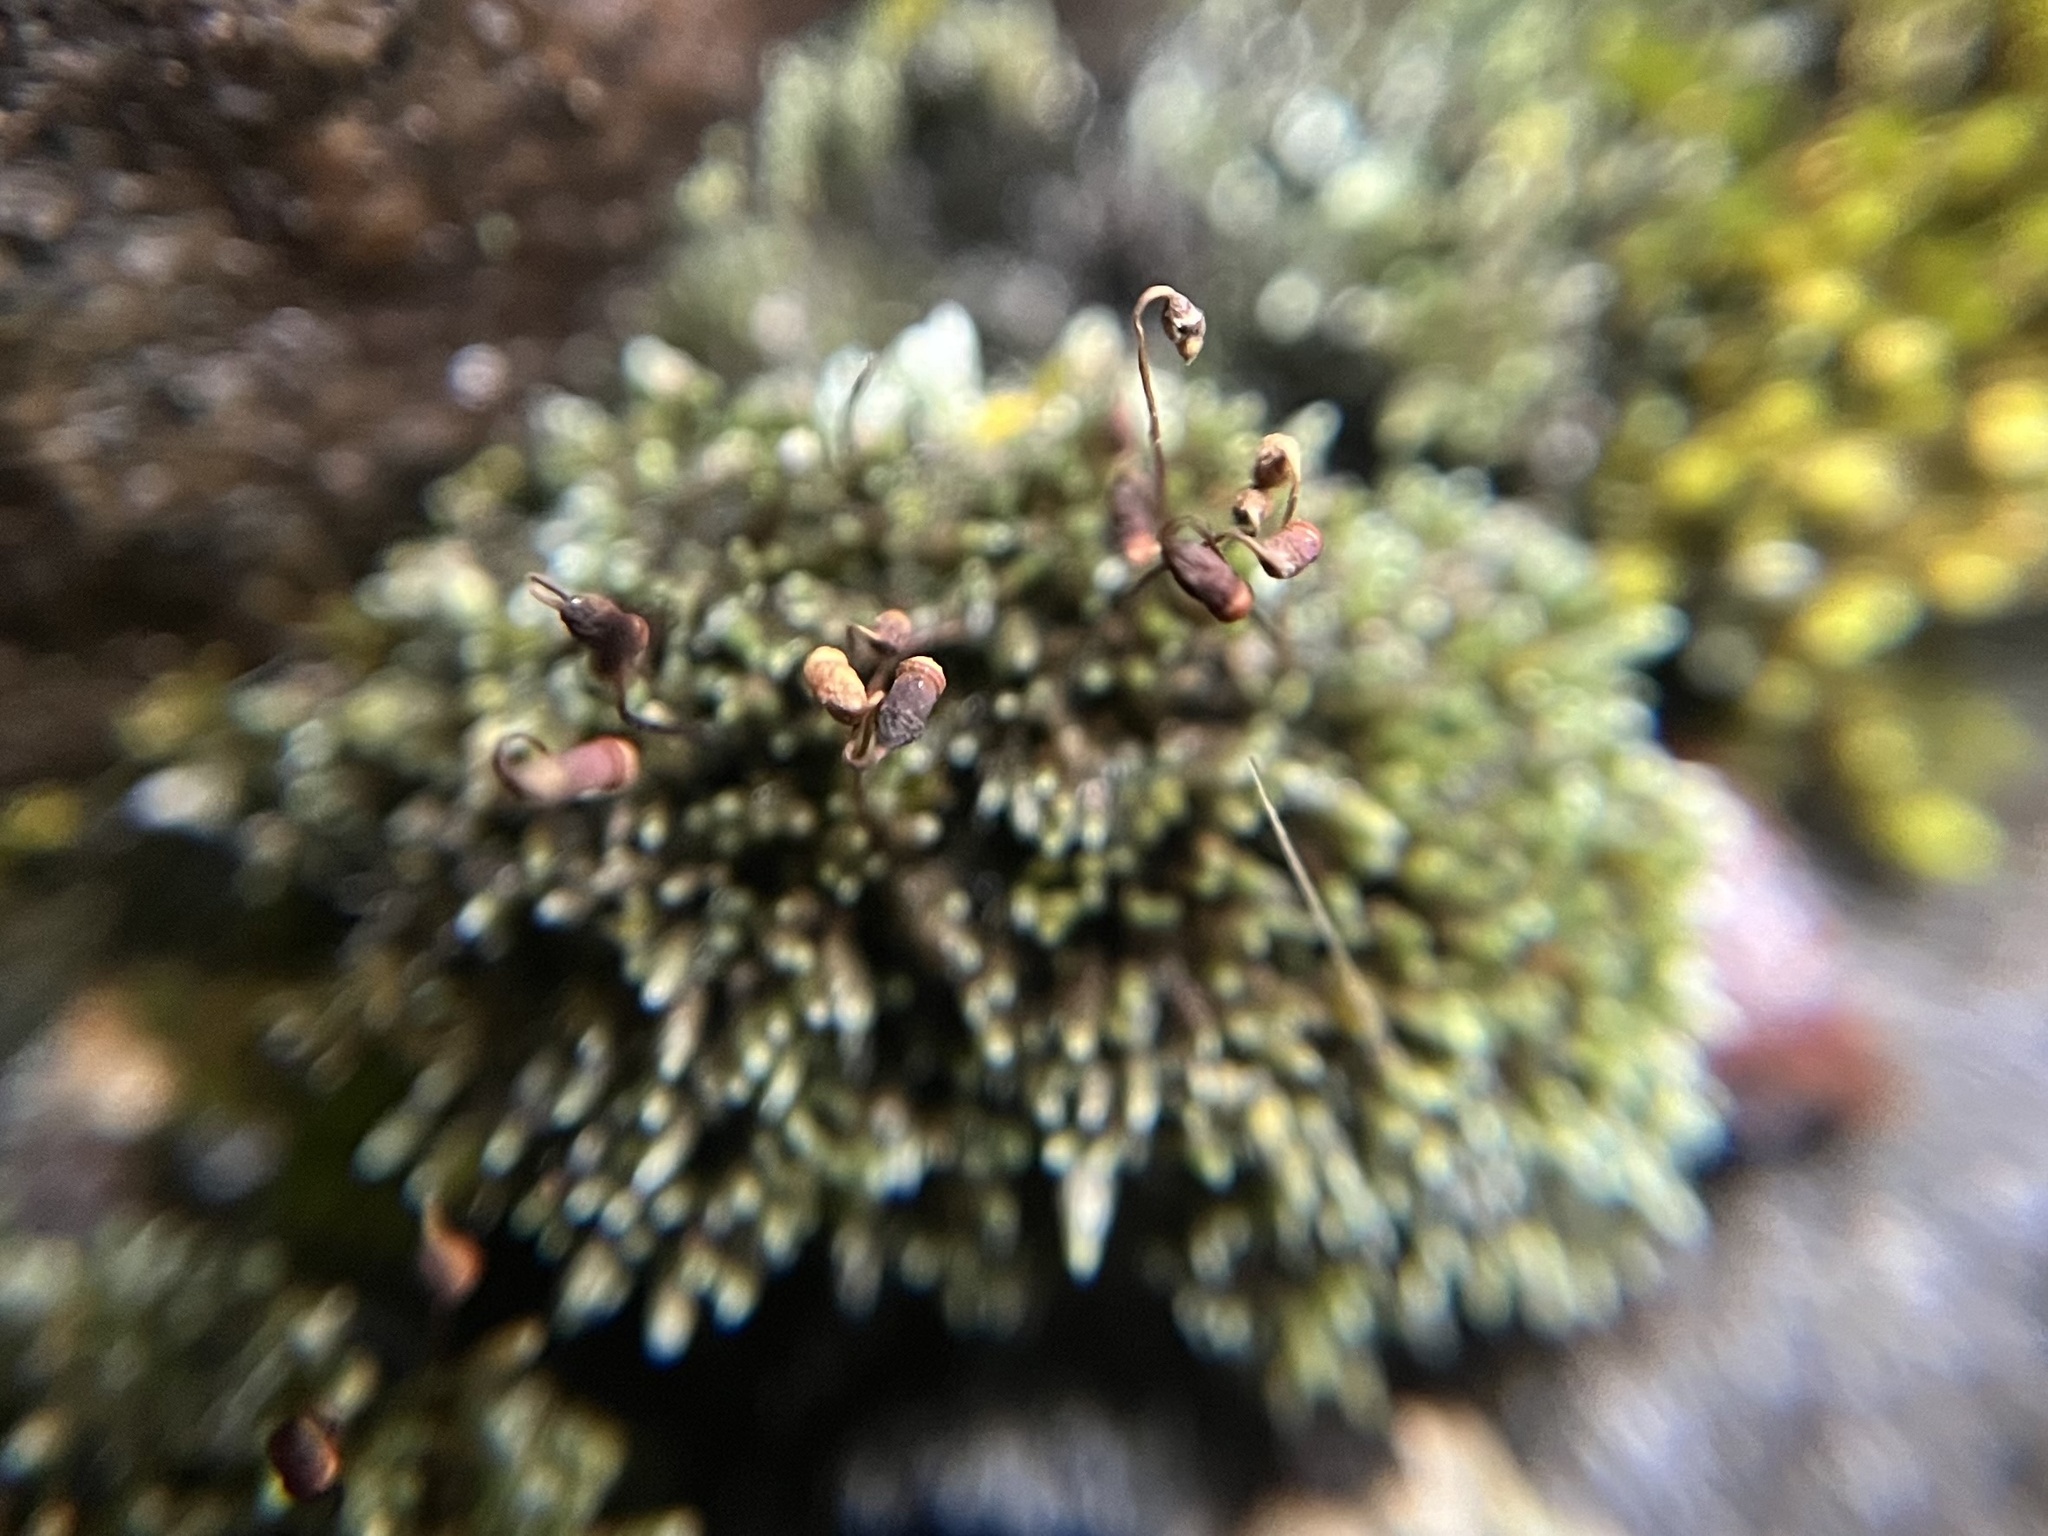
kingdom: Plantae
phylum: Bryophyta
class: Bryopsida
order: Bryales
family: Bryaceae
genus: Bryum
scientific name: Bryum argenteum
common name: Silver-moss
